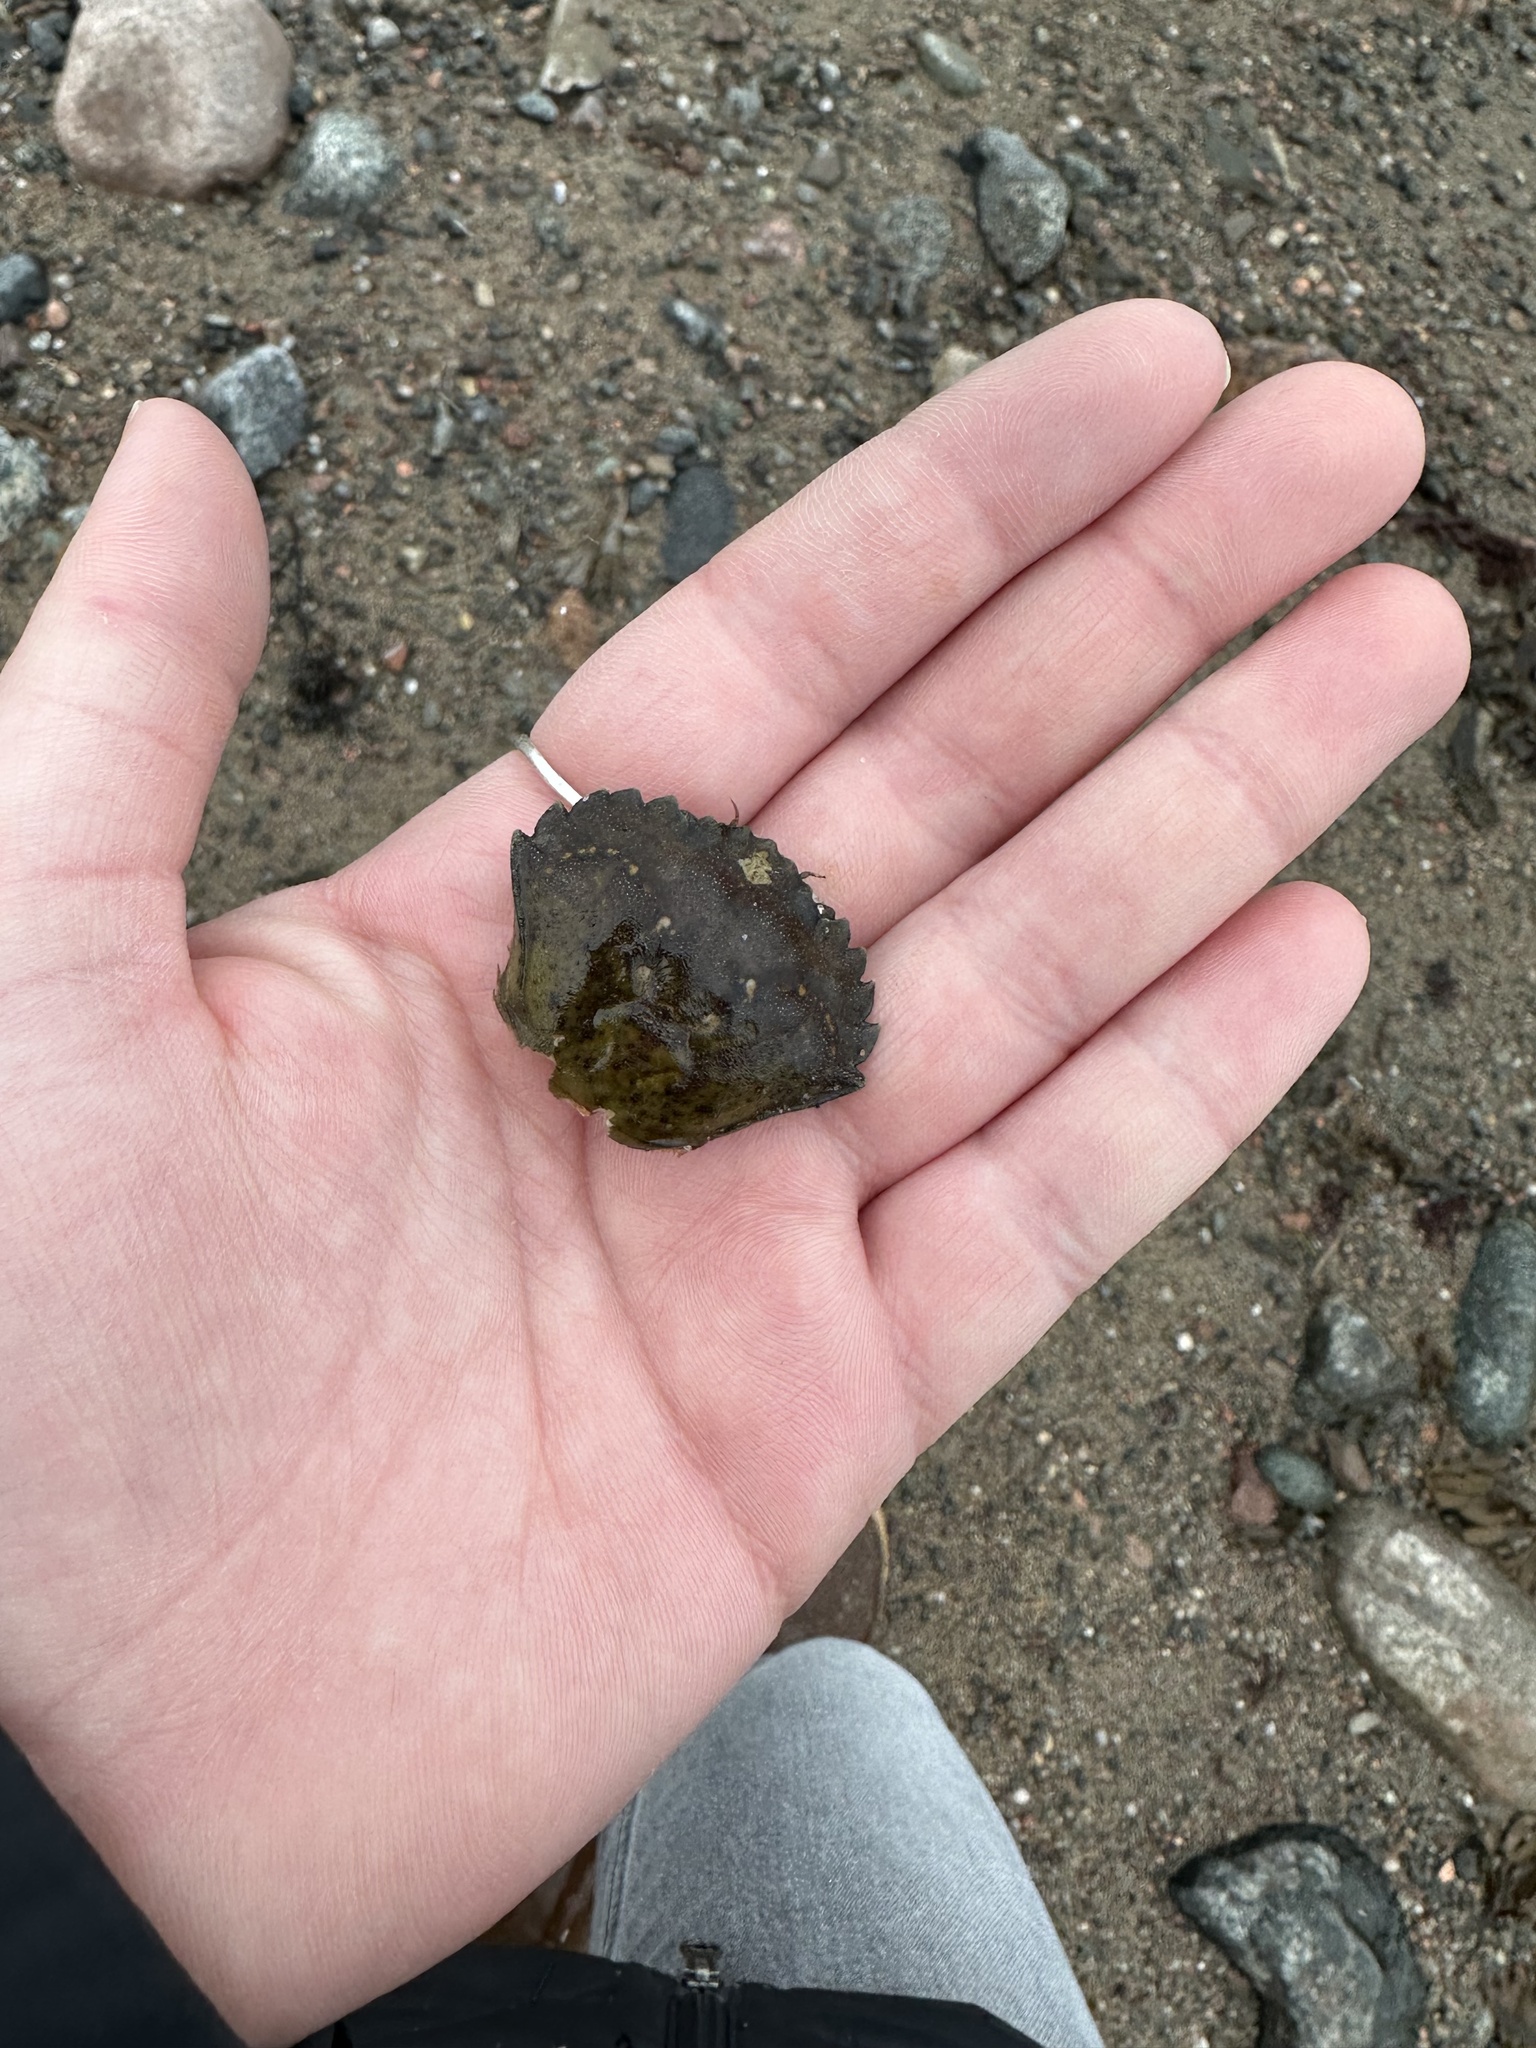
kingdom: Animalia
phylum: Arthropoda
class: Malacostraca
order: Decapoda
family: Carcinidae
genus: Carcinus
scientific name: Carcinus maenas
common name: European green crab
